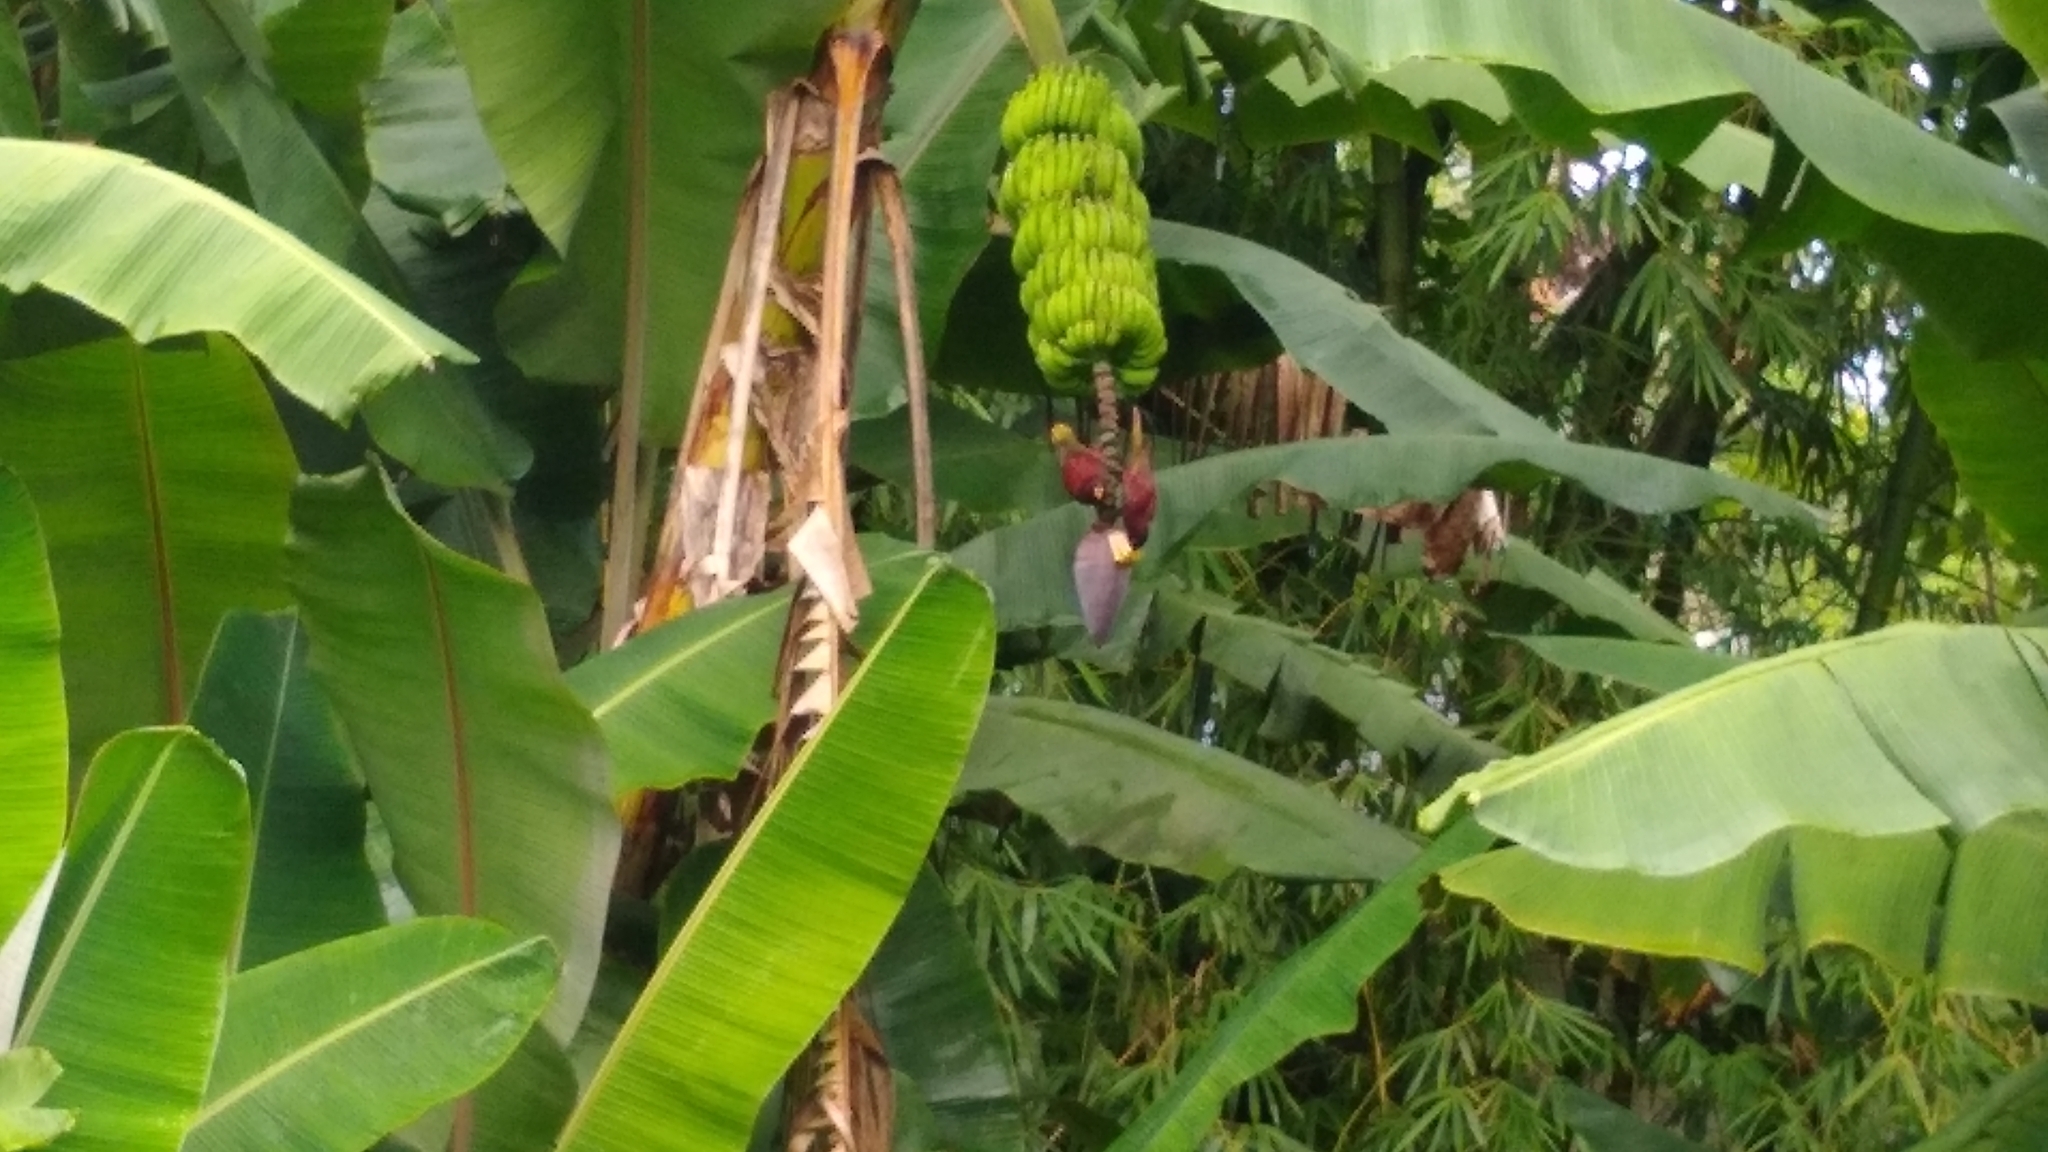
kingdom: Animalia
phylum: Chordata
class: Aves
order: Psittaciformes
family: Psittacidae
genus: Trichoglossus
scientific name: Trichoglossus rubiginosus
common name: Pohnpei lorikeet
